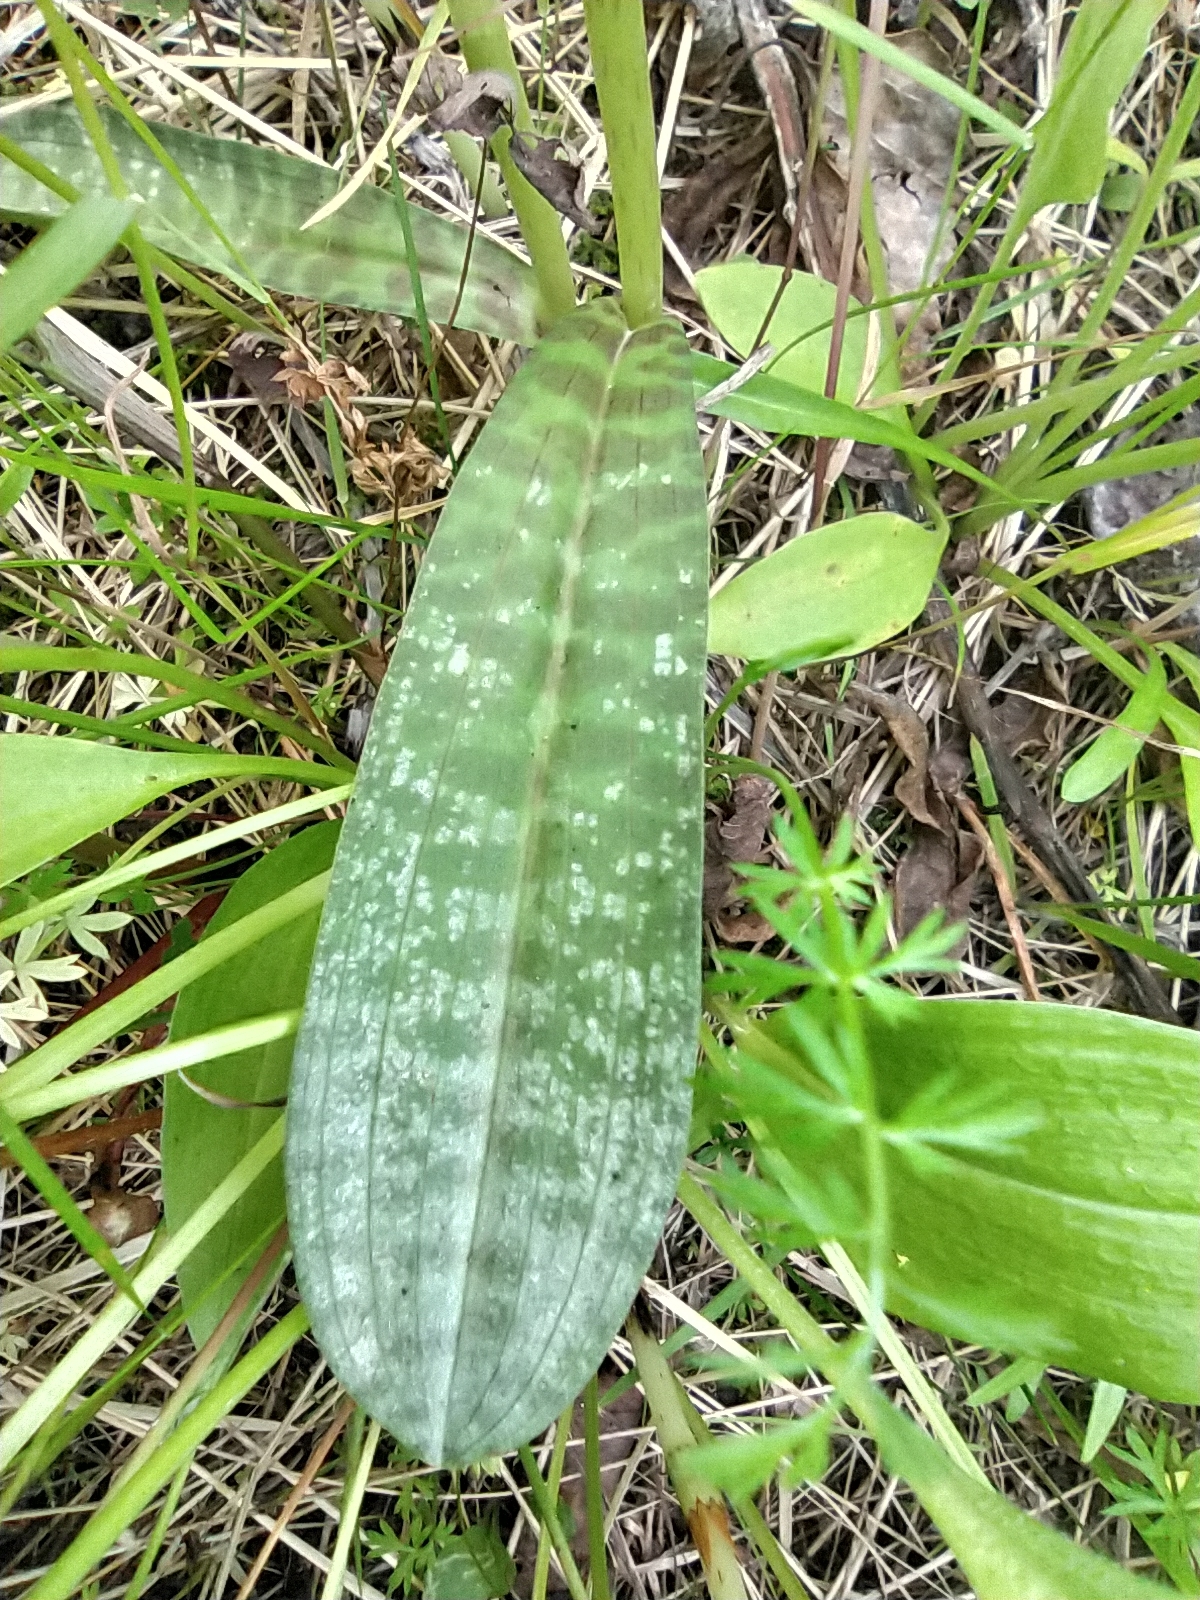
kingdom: Plantae
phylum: Tracheophyta
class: Liliopsida
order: Asparagales
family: Orchidaceae
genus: Dactylorhiza
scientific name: Dactylorhiza maculata
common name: Heath spotted-orchid
